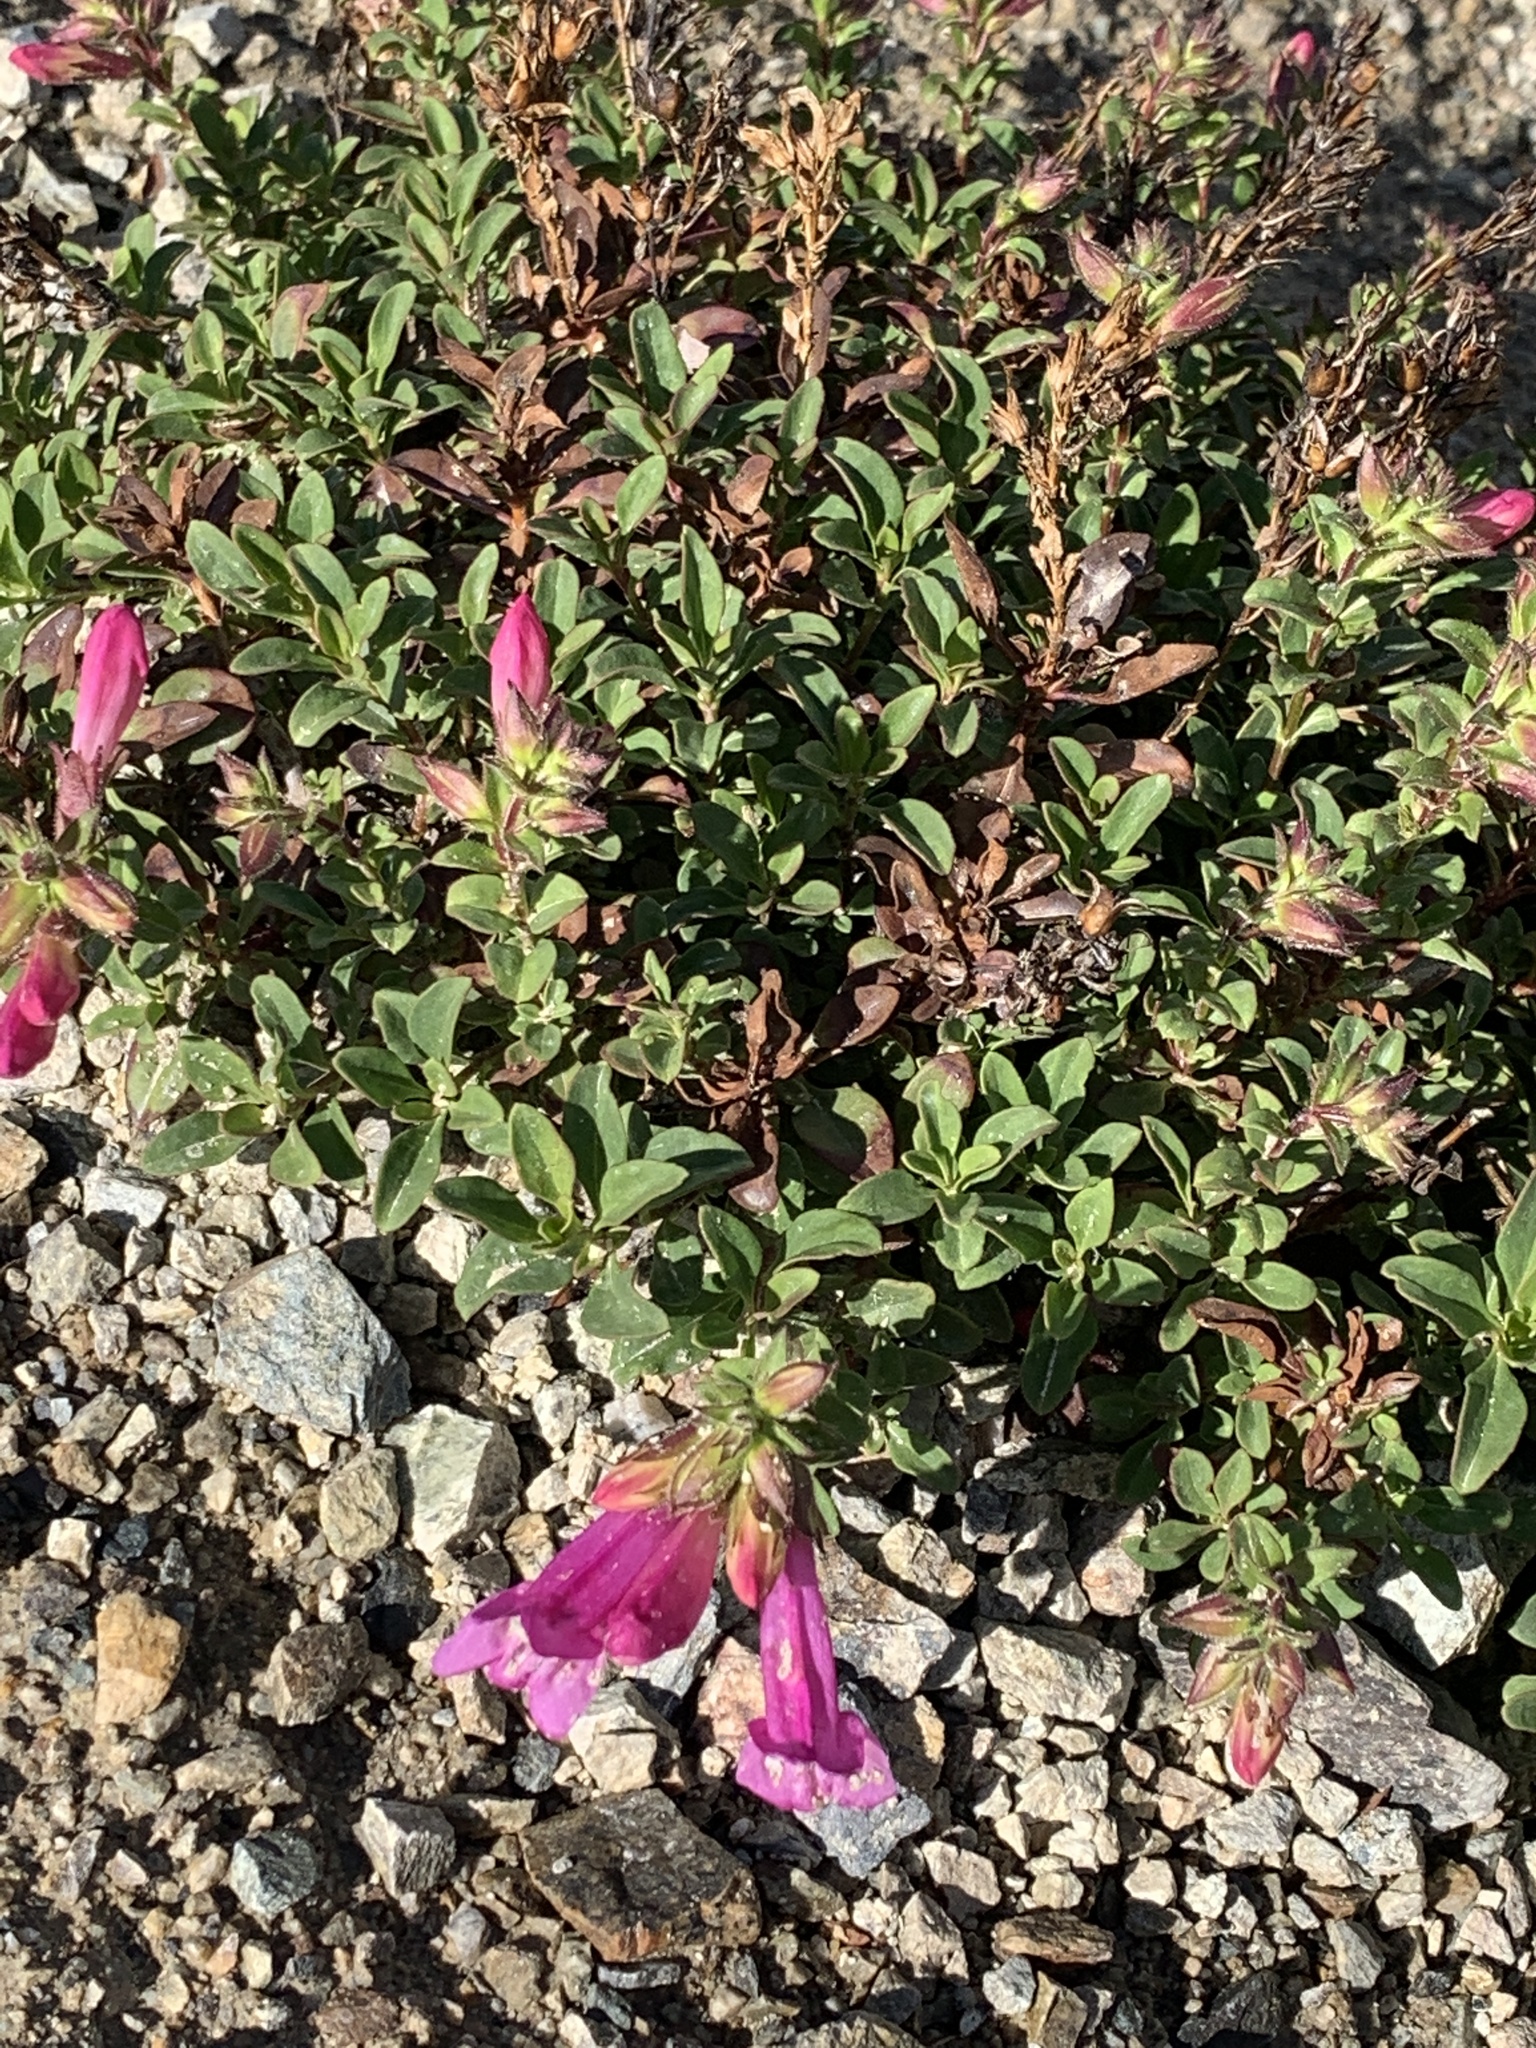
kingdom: Plantae
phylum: Tracheophyta
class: Magnoliopsida
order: Lamiales
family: Plantaginaceae
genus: Penstemon
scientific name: Penstemon newberryi
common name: Mountain-pride
